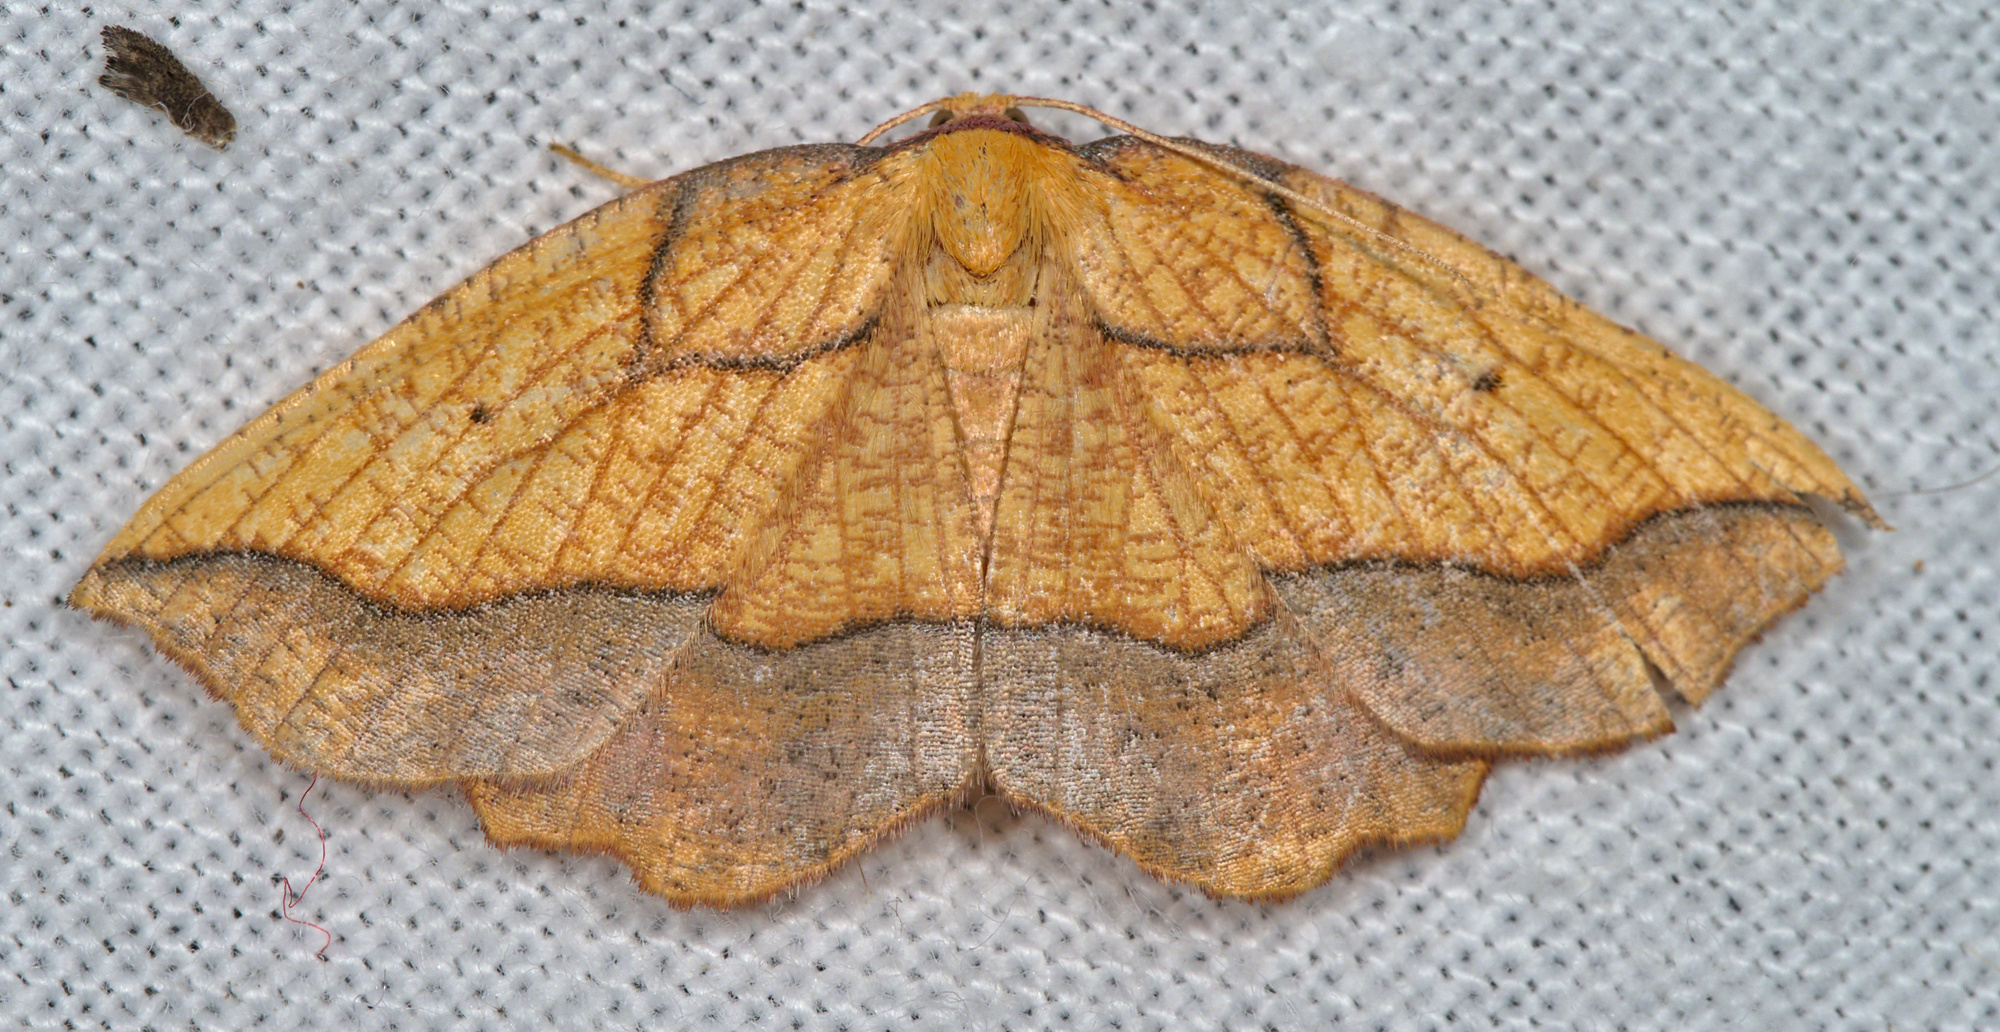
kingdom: Animalia
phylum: Arthropoda
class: Insecta
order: Lepidoptera
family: Geometridae
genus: Epione
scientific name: Epione repandaria
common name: Bordered beauty
